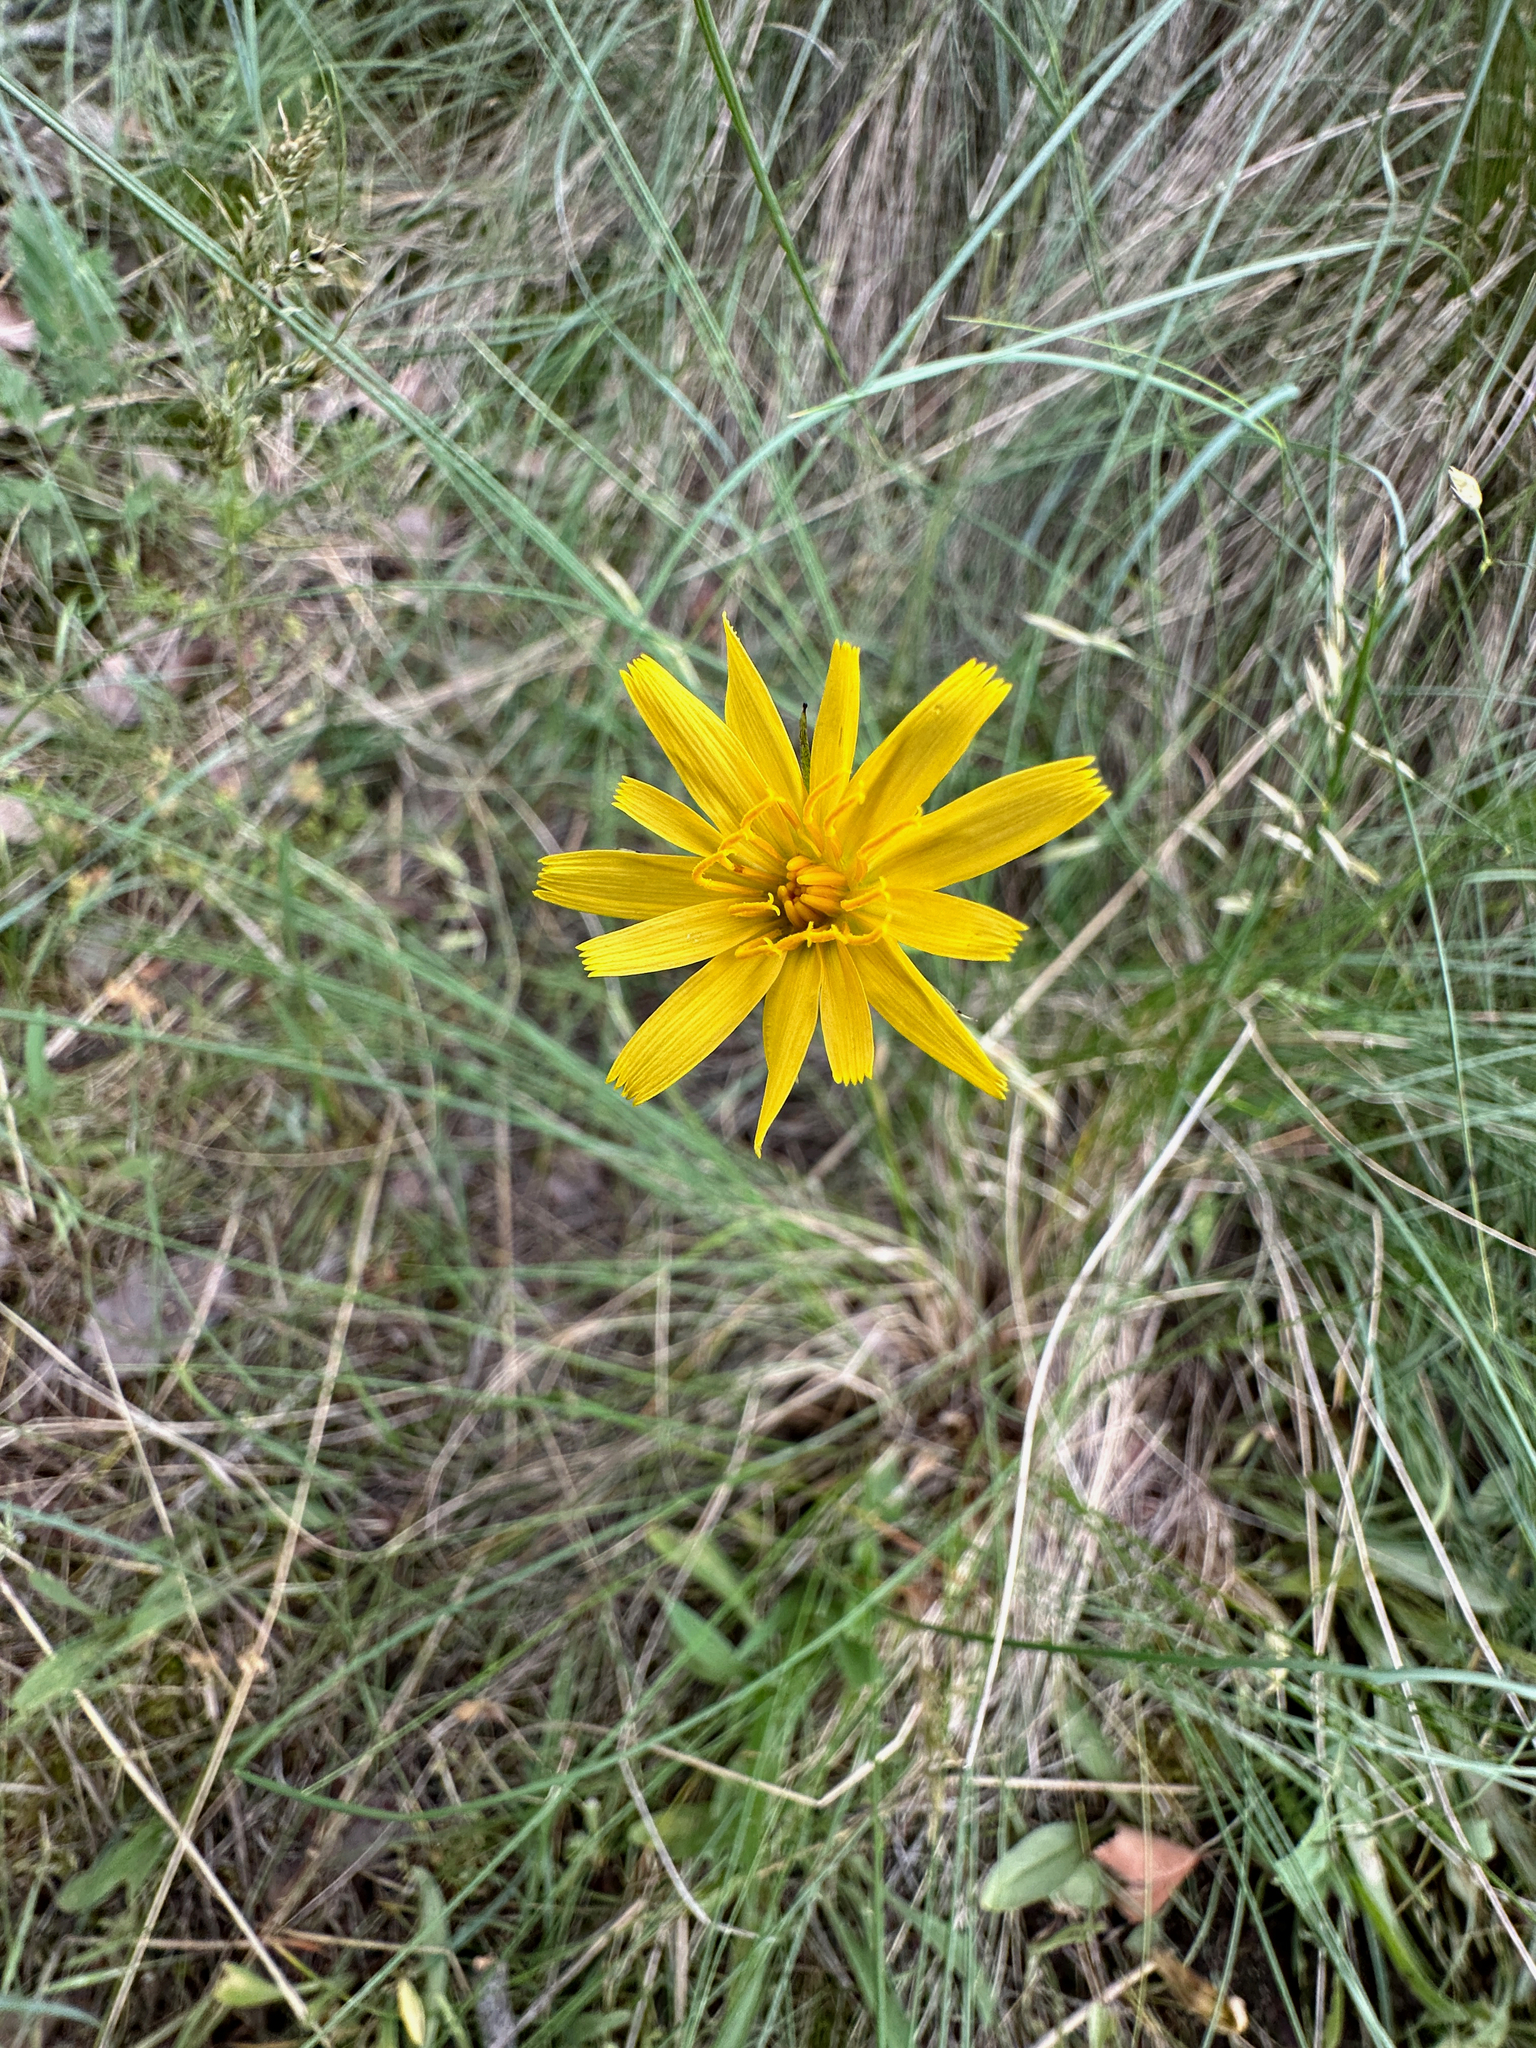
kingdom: Plantae
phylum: Tracheophyta
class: Magnoliopsida
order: Asterales
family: Asteraceae
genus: Microseris
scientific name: Microseris nutans
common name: Nodding microseris
